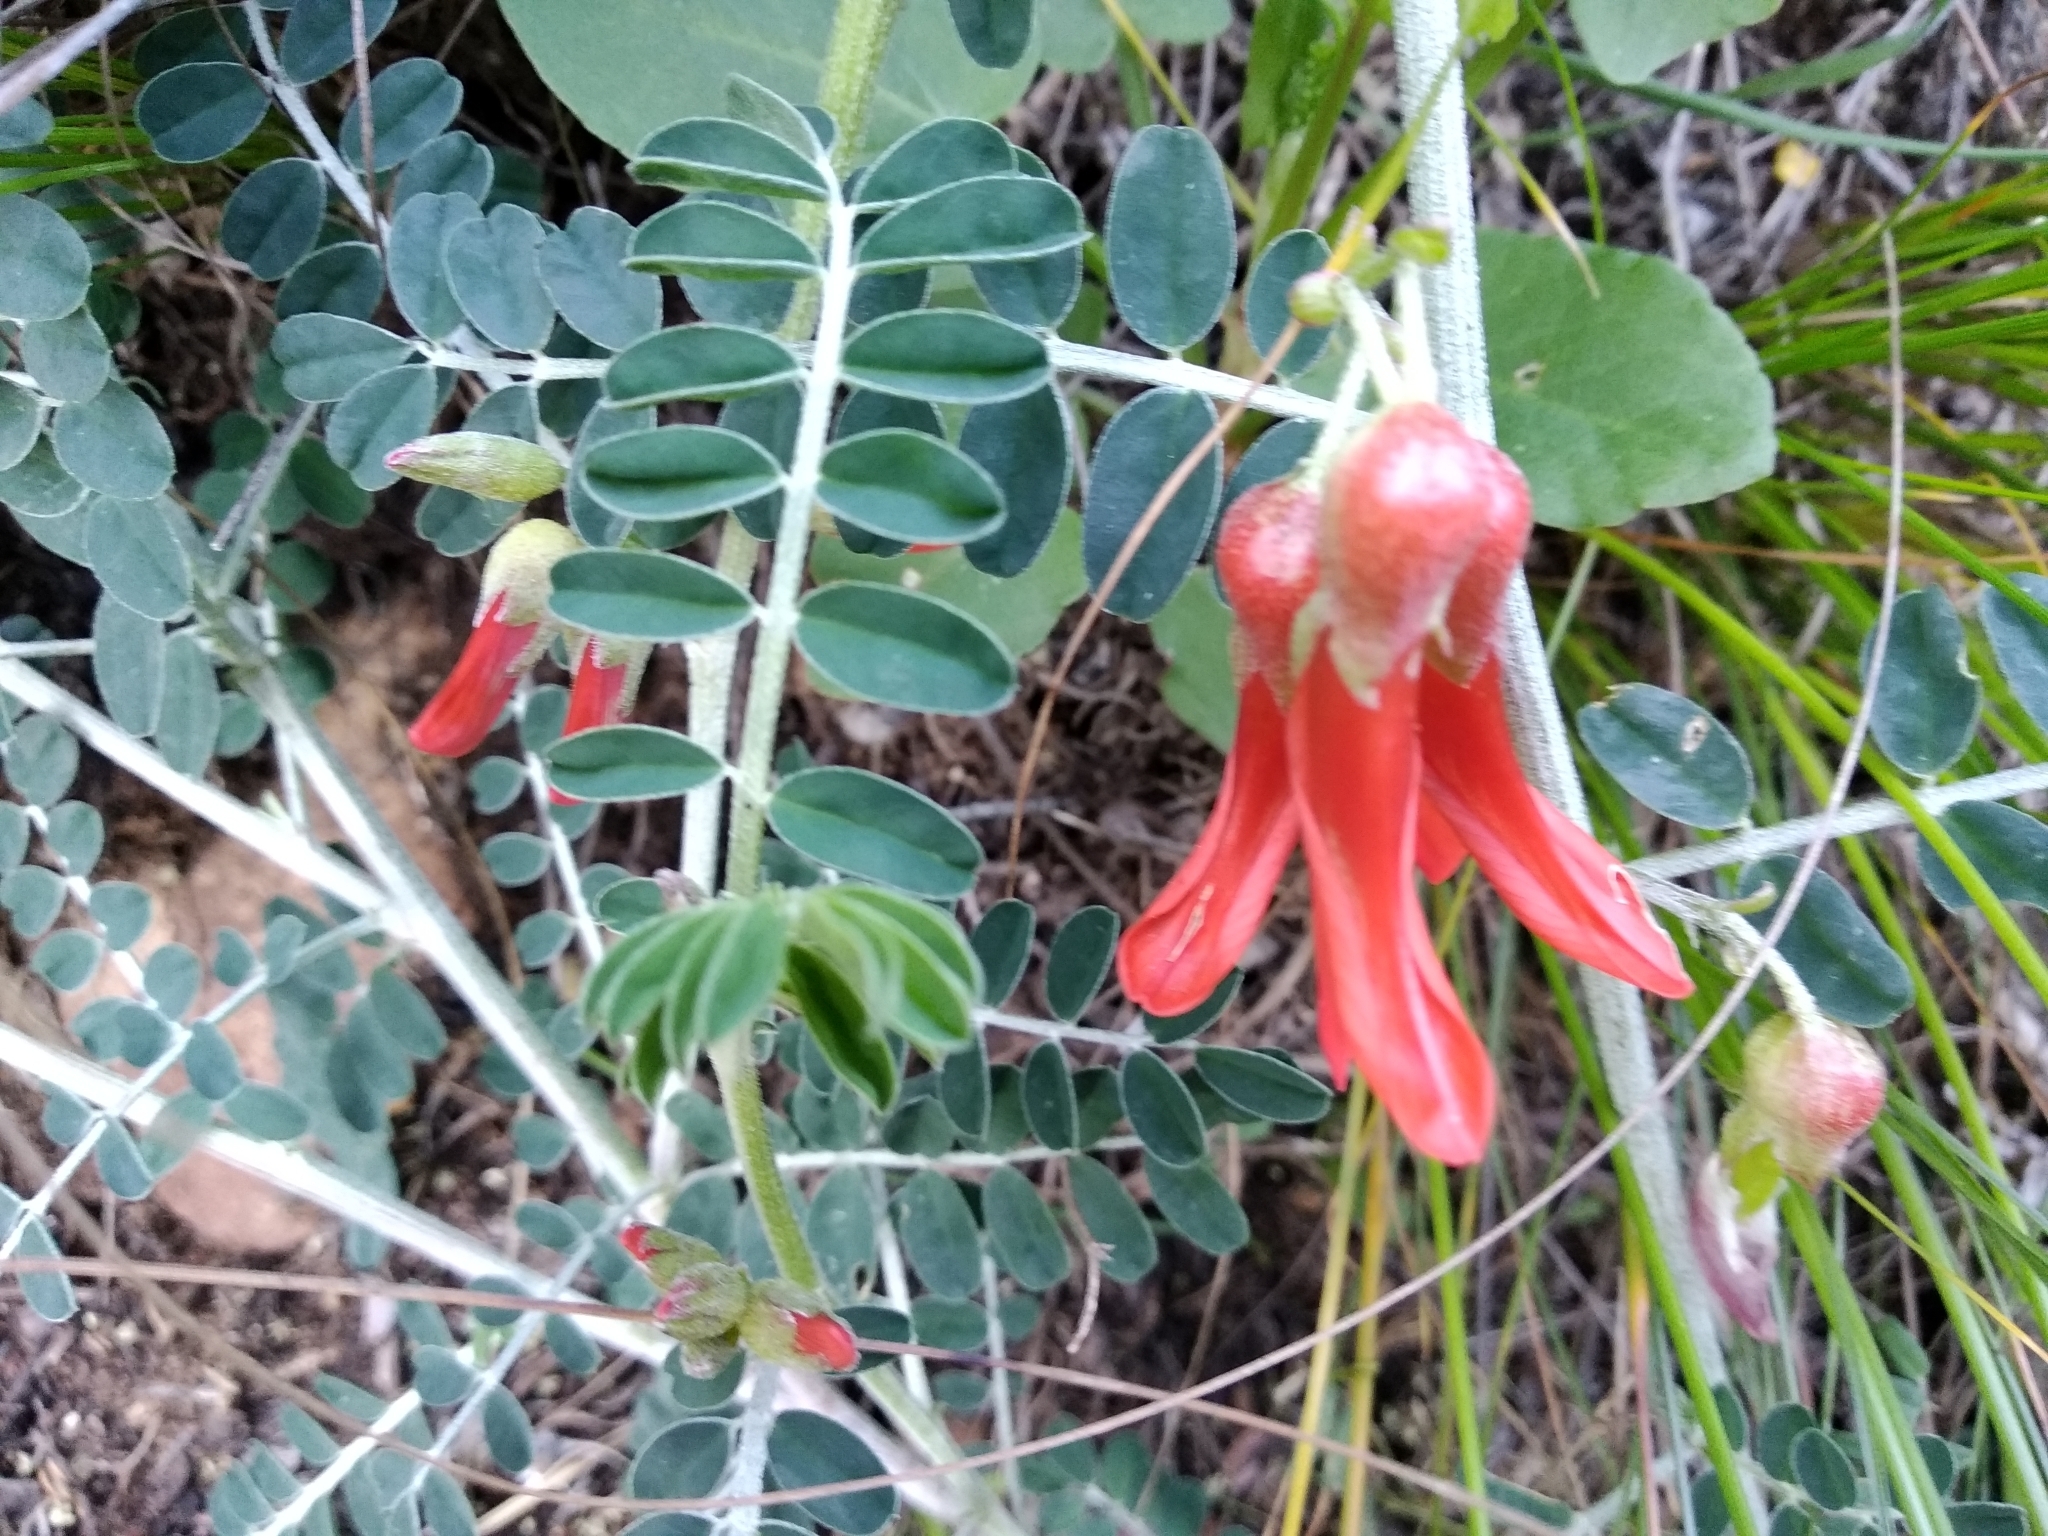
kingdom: Plantae
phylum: Tracheophyta
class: Magnoliopsida
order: Fabales
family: Fabaceae
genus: Lessertia
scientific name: Lessertia frutescens
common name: Balloon-pea
